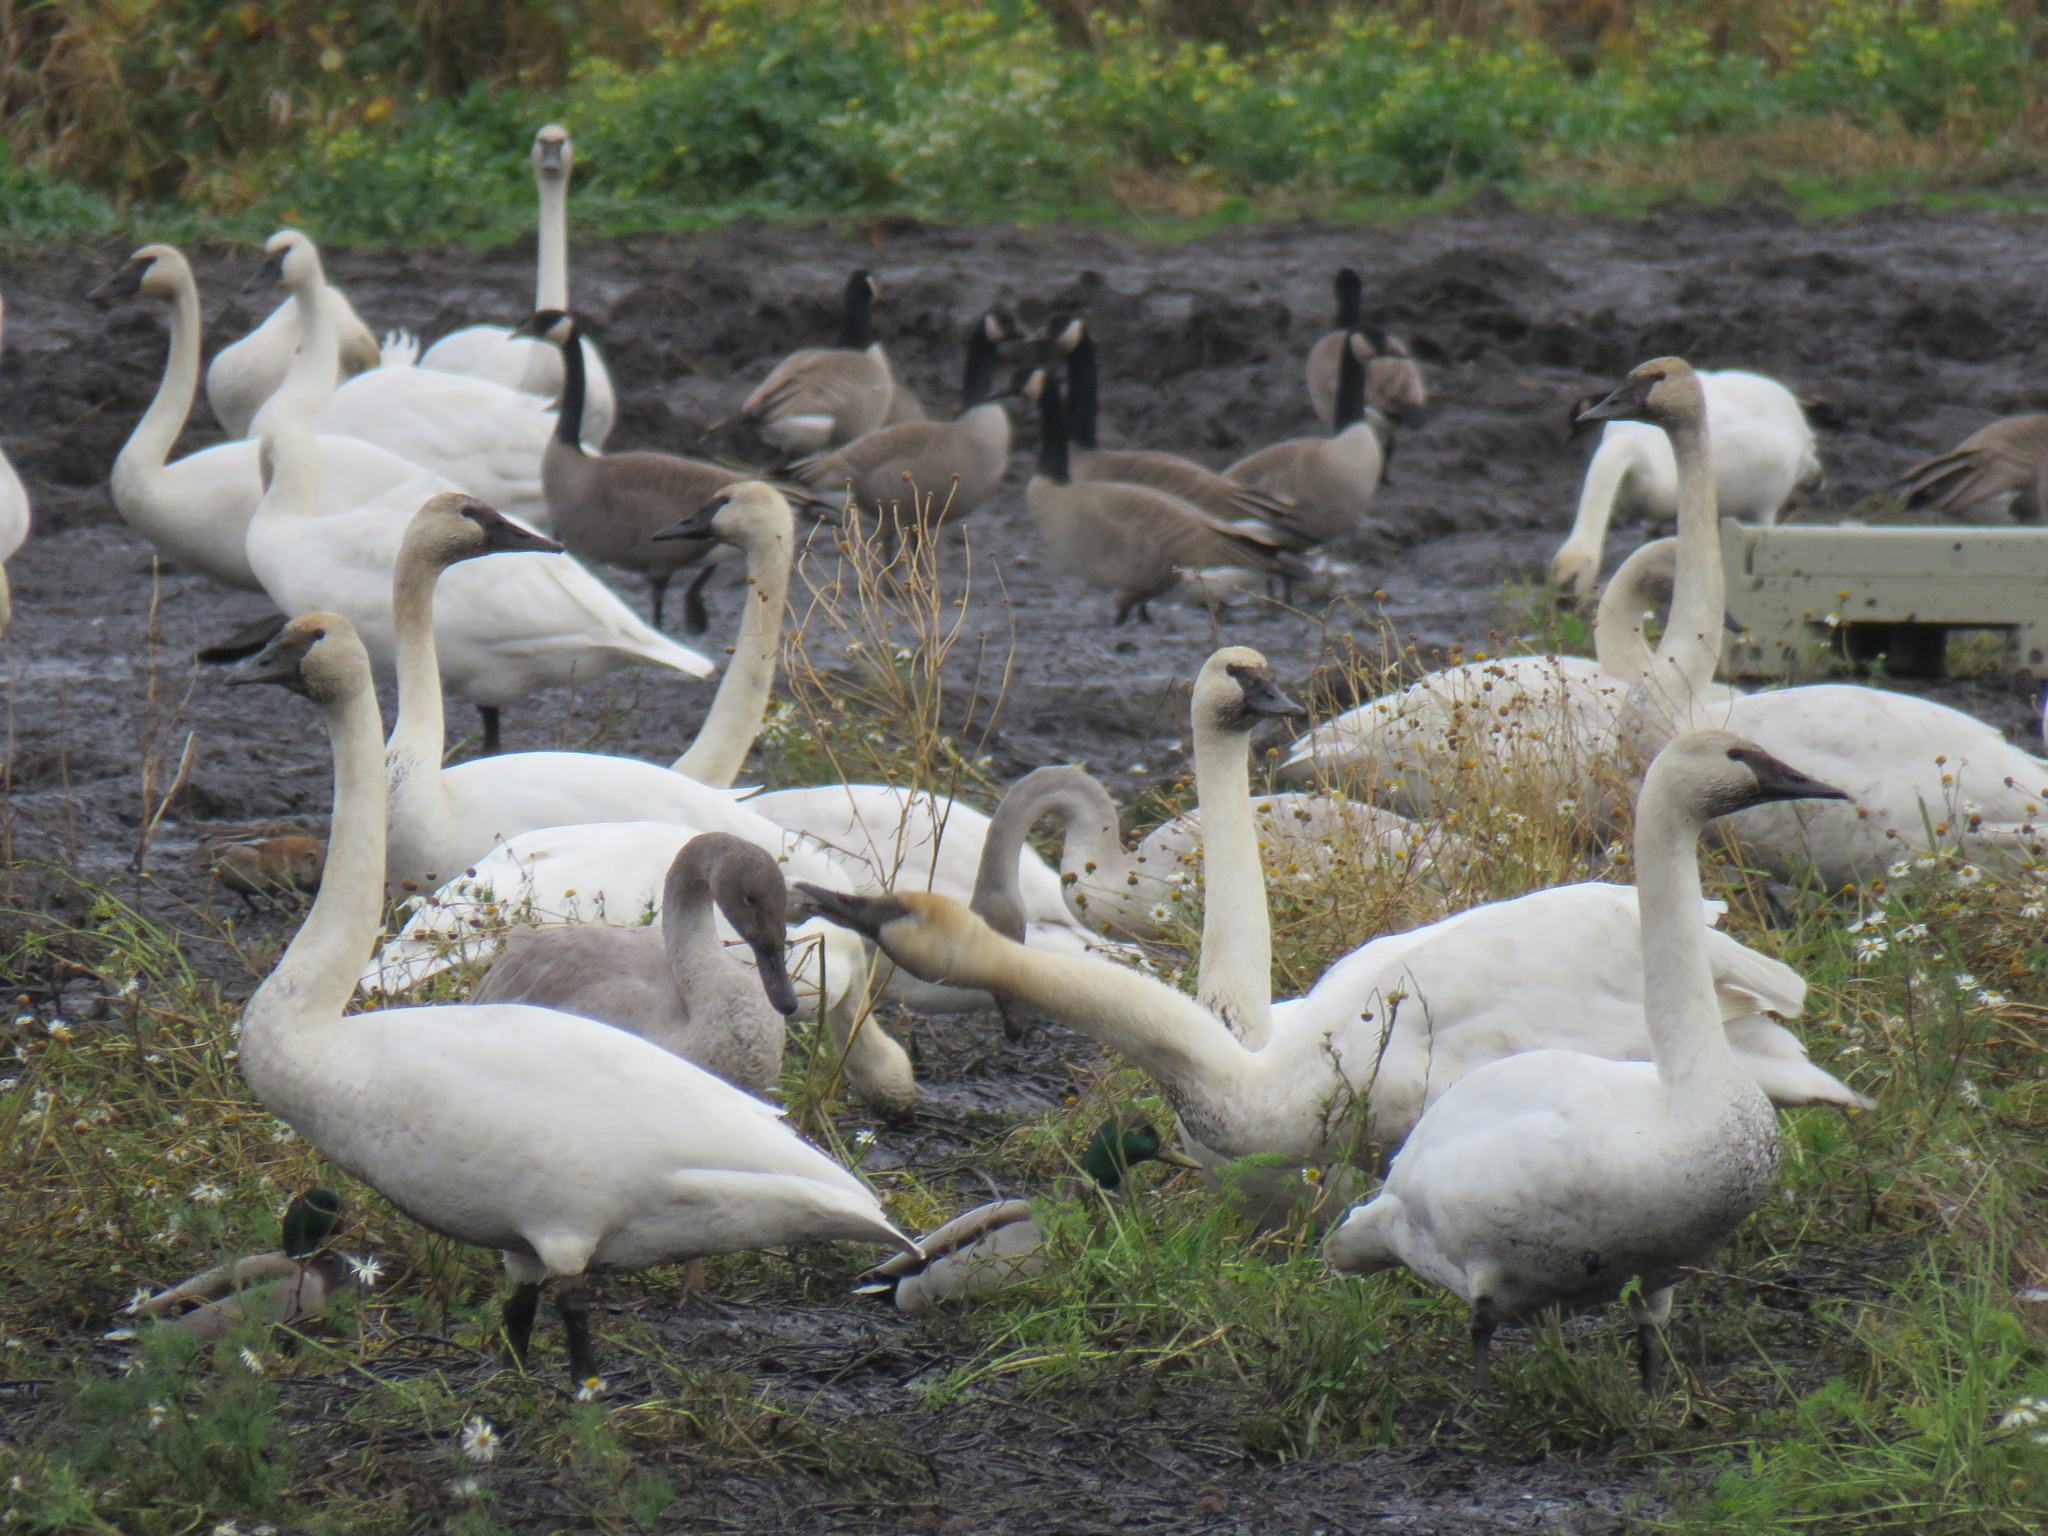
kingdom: Animalia
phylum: Chordata
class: Aves
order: Anseriformes
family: Anatidae
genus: Cygnus
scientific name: Cygnus buccinator
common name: Trumpeter swan
